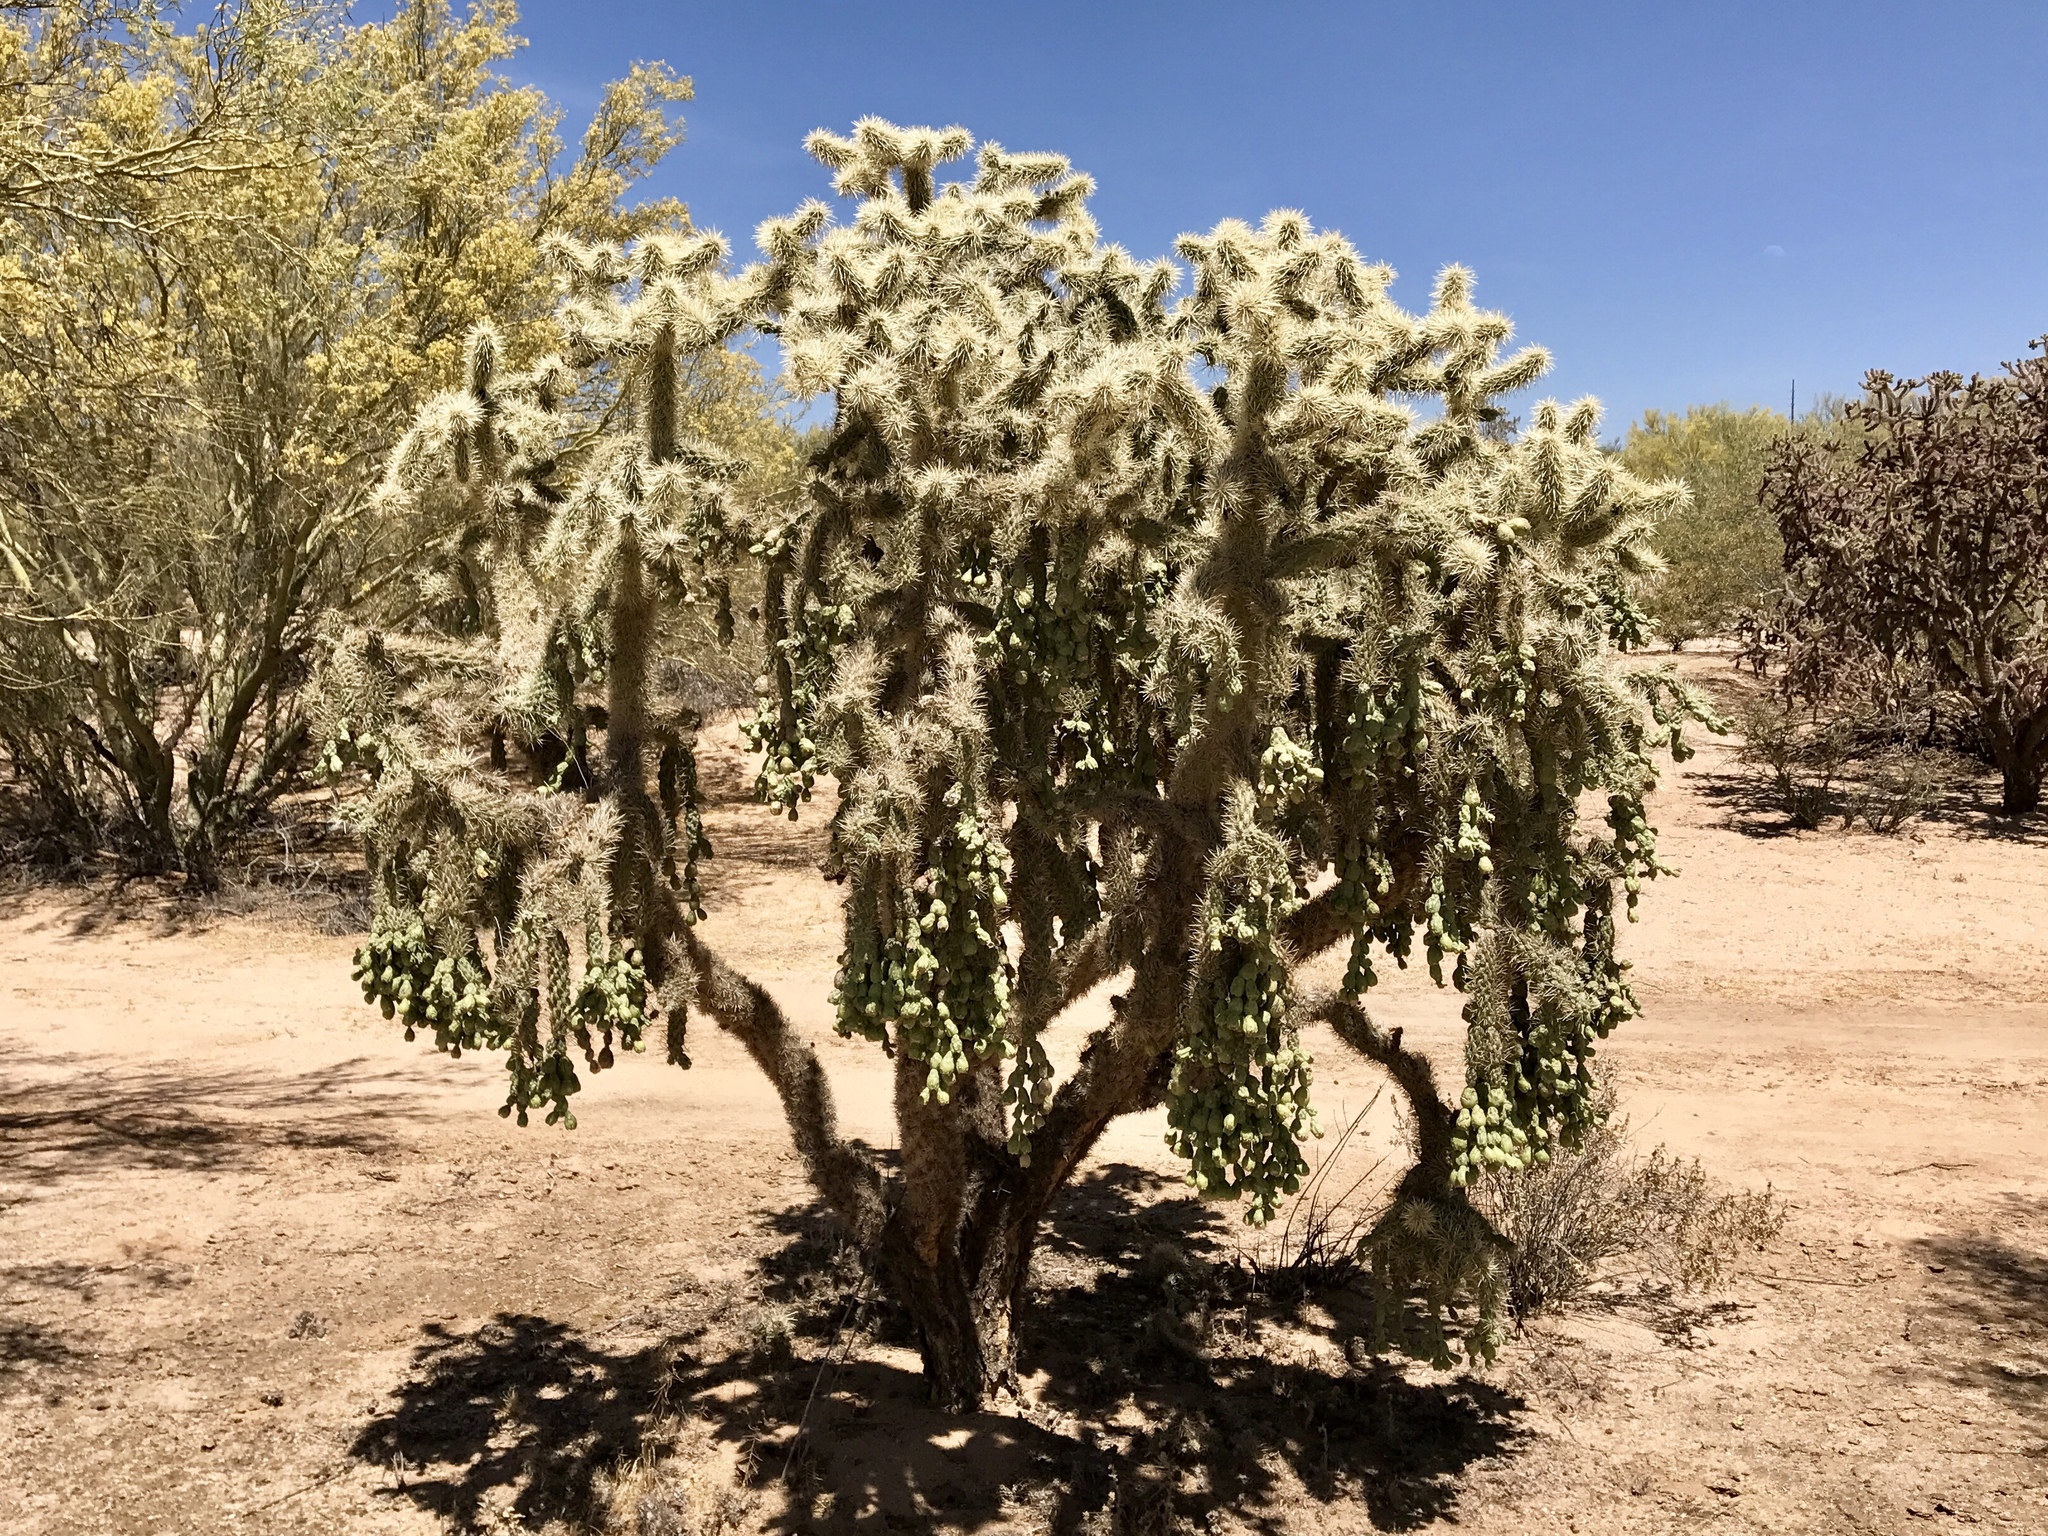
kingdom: Plantae
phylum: Tracheophyta
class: Magnoliopsida
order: Caryophyllales
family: Cactaceae
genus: Cylindropuntia
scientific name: Cylindropuntia fulgida
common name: Jumping cholla
